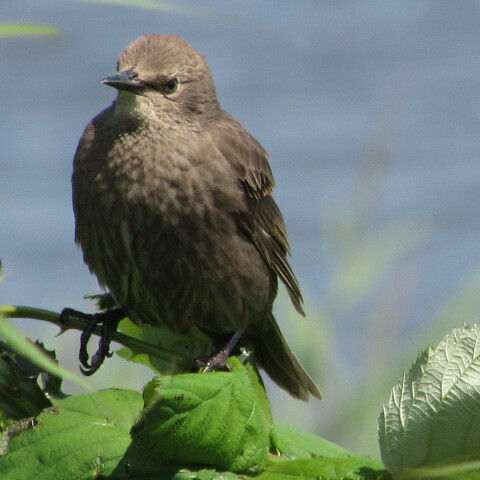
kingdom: Animalia
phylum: Chordata
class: Aves
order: Passeriformes
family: Sturnidae
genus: Sturnus
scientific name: Sturnus vulgaris
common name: Common starling
